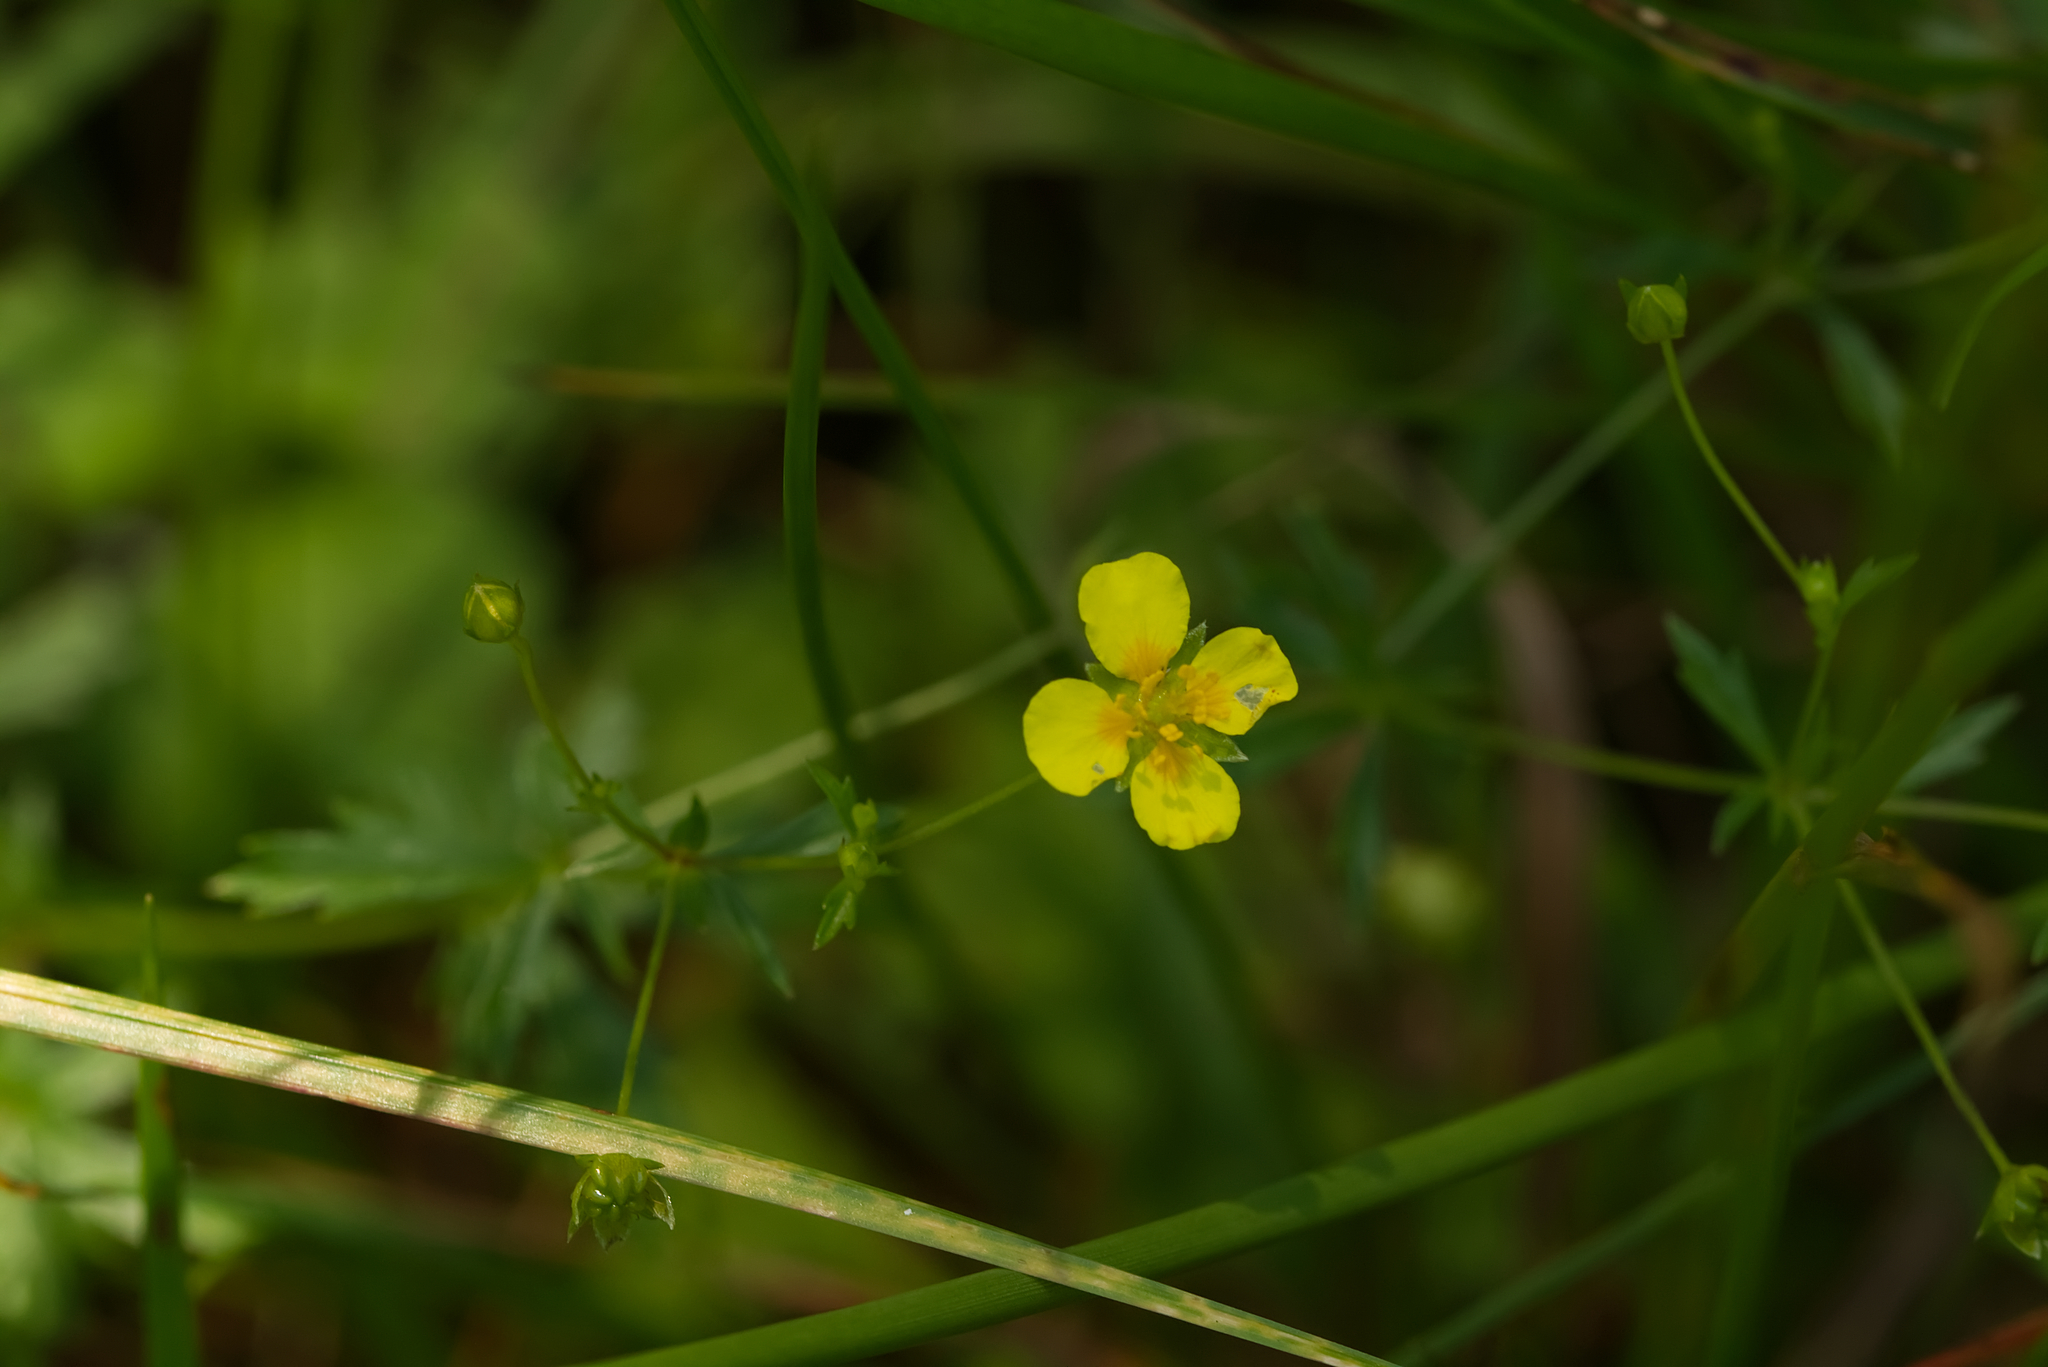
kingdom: Plantae
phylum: Tracheophyta
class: Magnoliopsida
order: Rosales
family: Rosaceae
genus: Potentilla
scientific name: Potentilla erecta
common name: Tormentil
